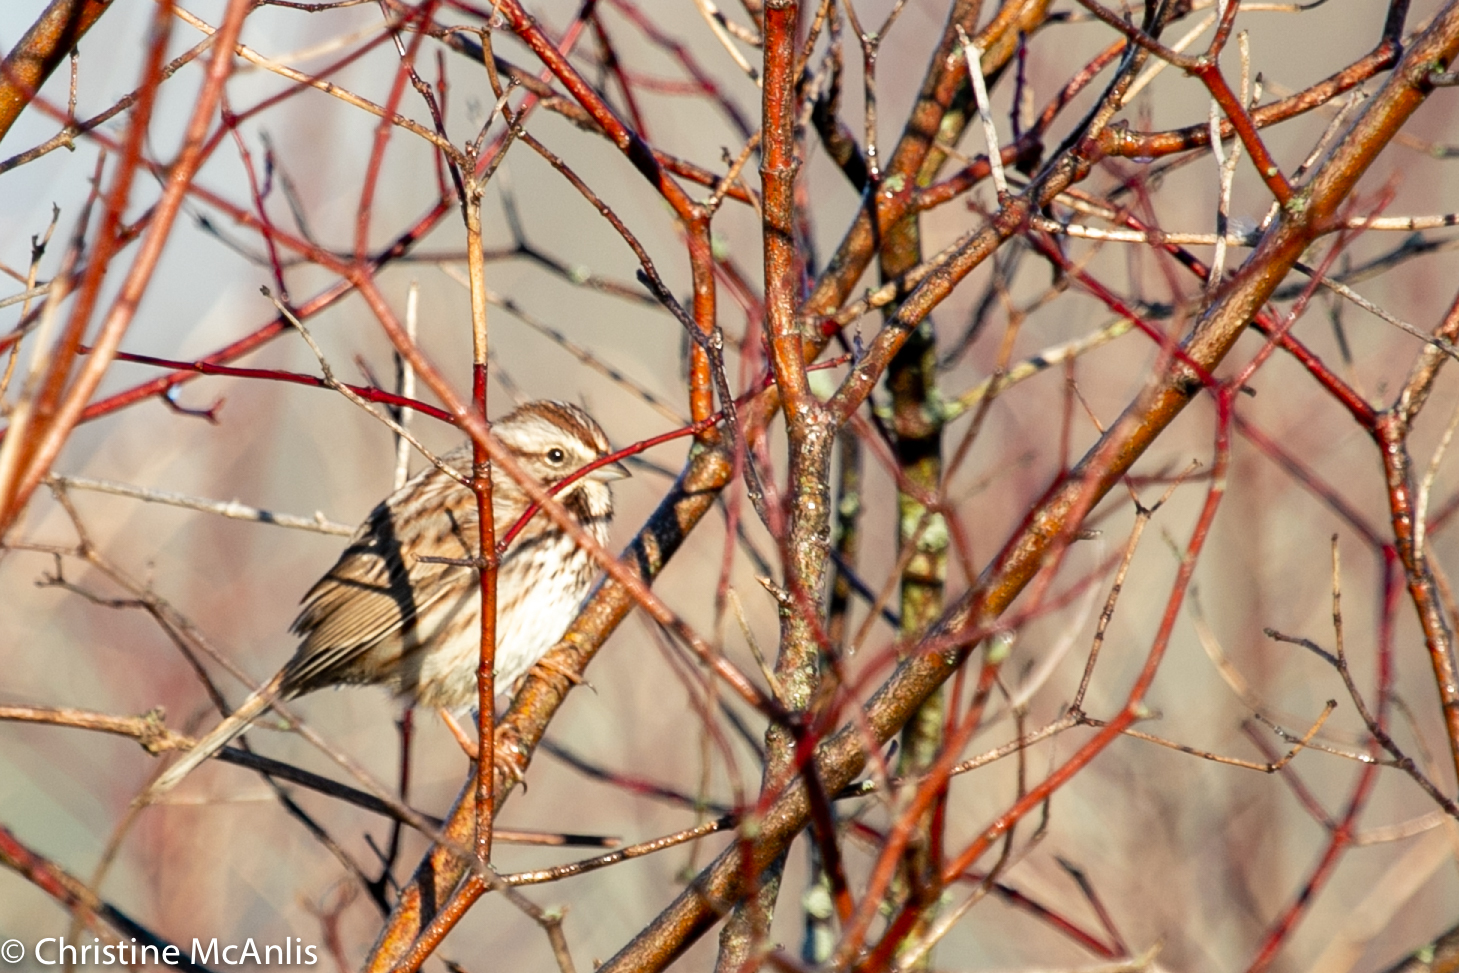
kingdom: Animalia
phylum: Chordata
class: Aves
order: Passeriformes
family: Passerellidae
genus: Melospiza
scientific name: Melospiza melodia
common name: Song sparrow
